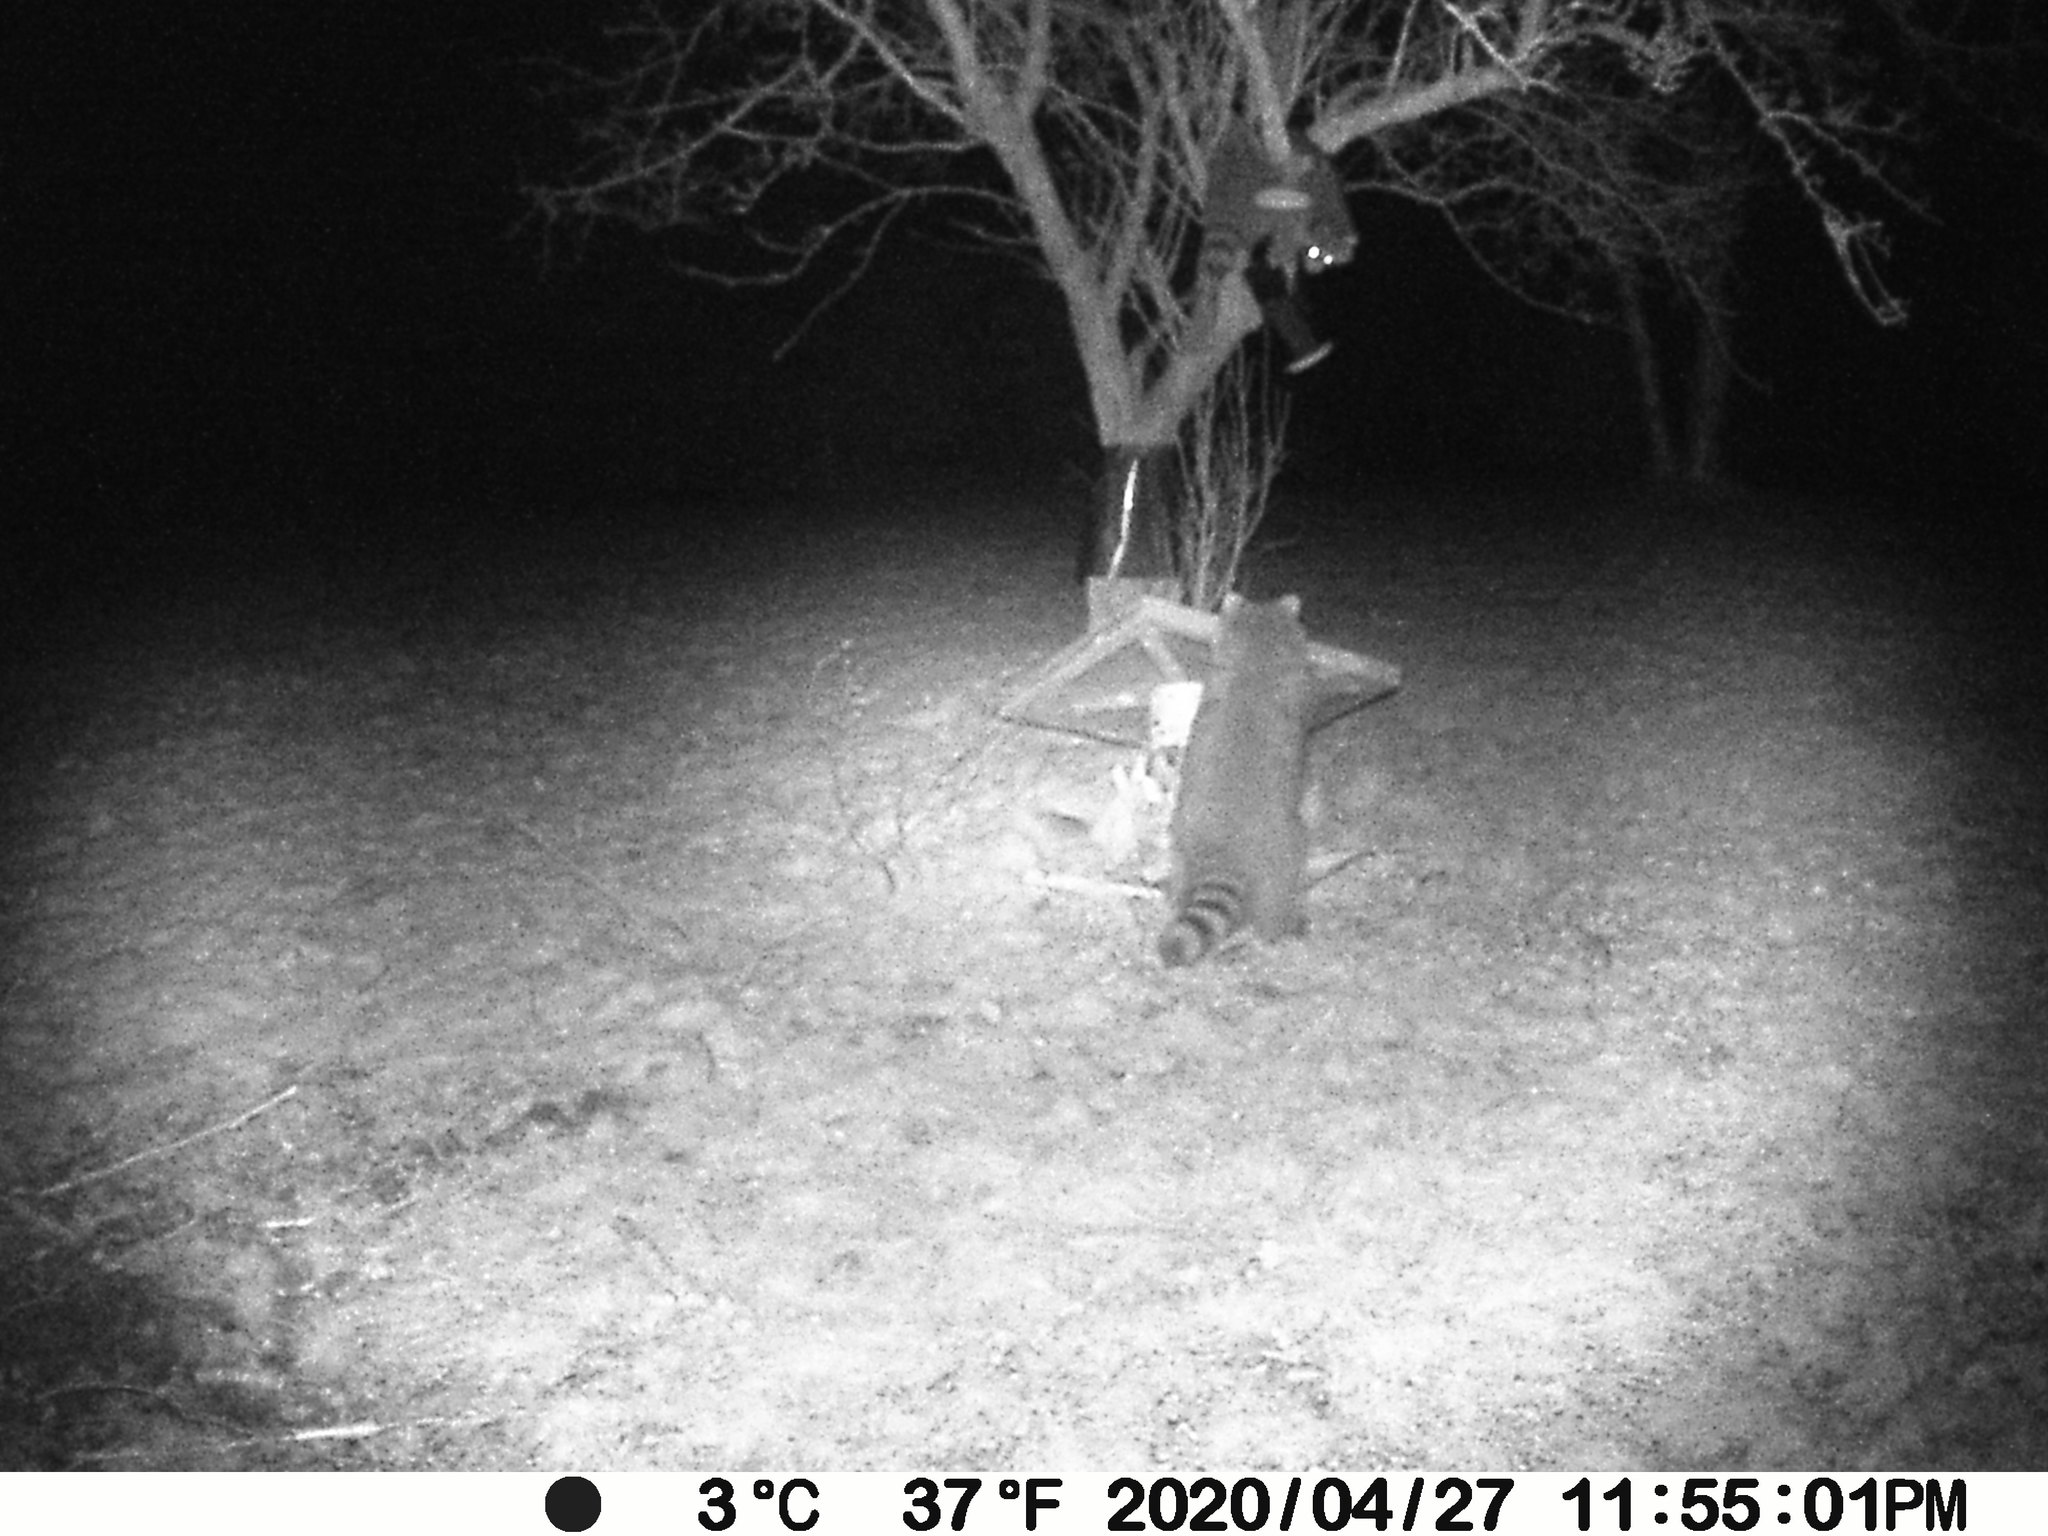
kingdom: Animalia
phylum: Chordata
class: Mammalia
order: Carnivora
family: Procyonidae
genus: Procyon
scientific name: Procyon lotor
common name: Raccoon
